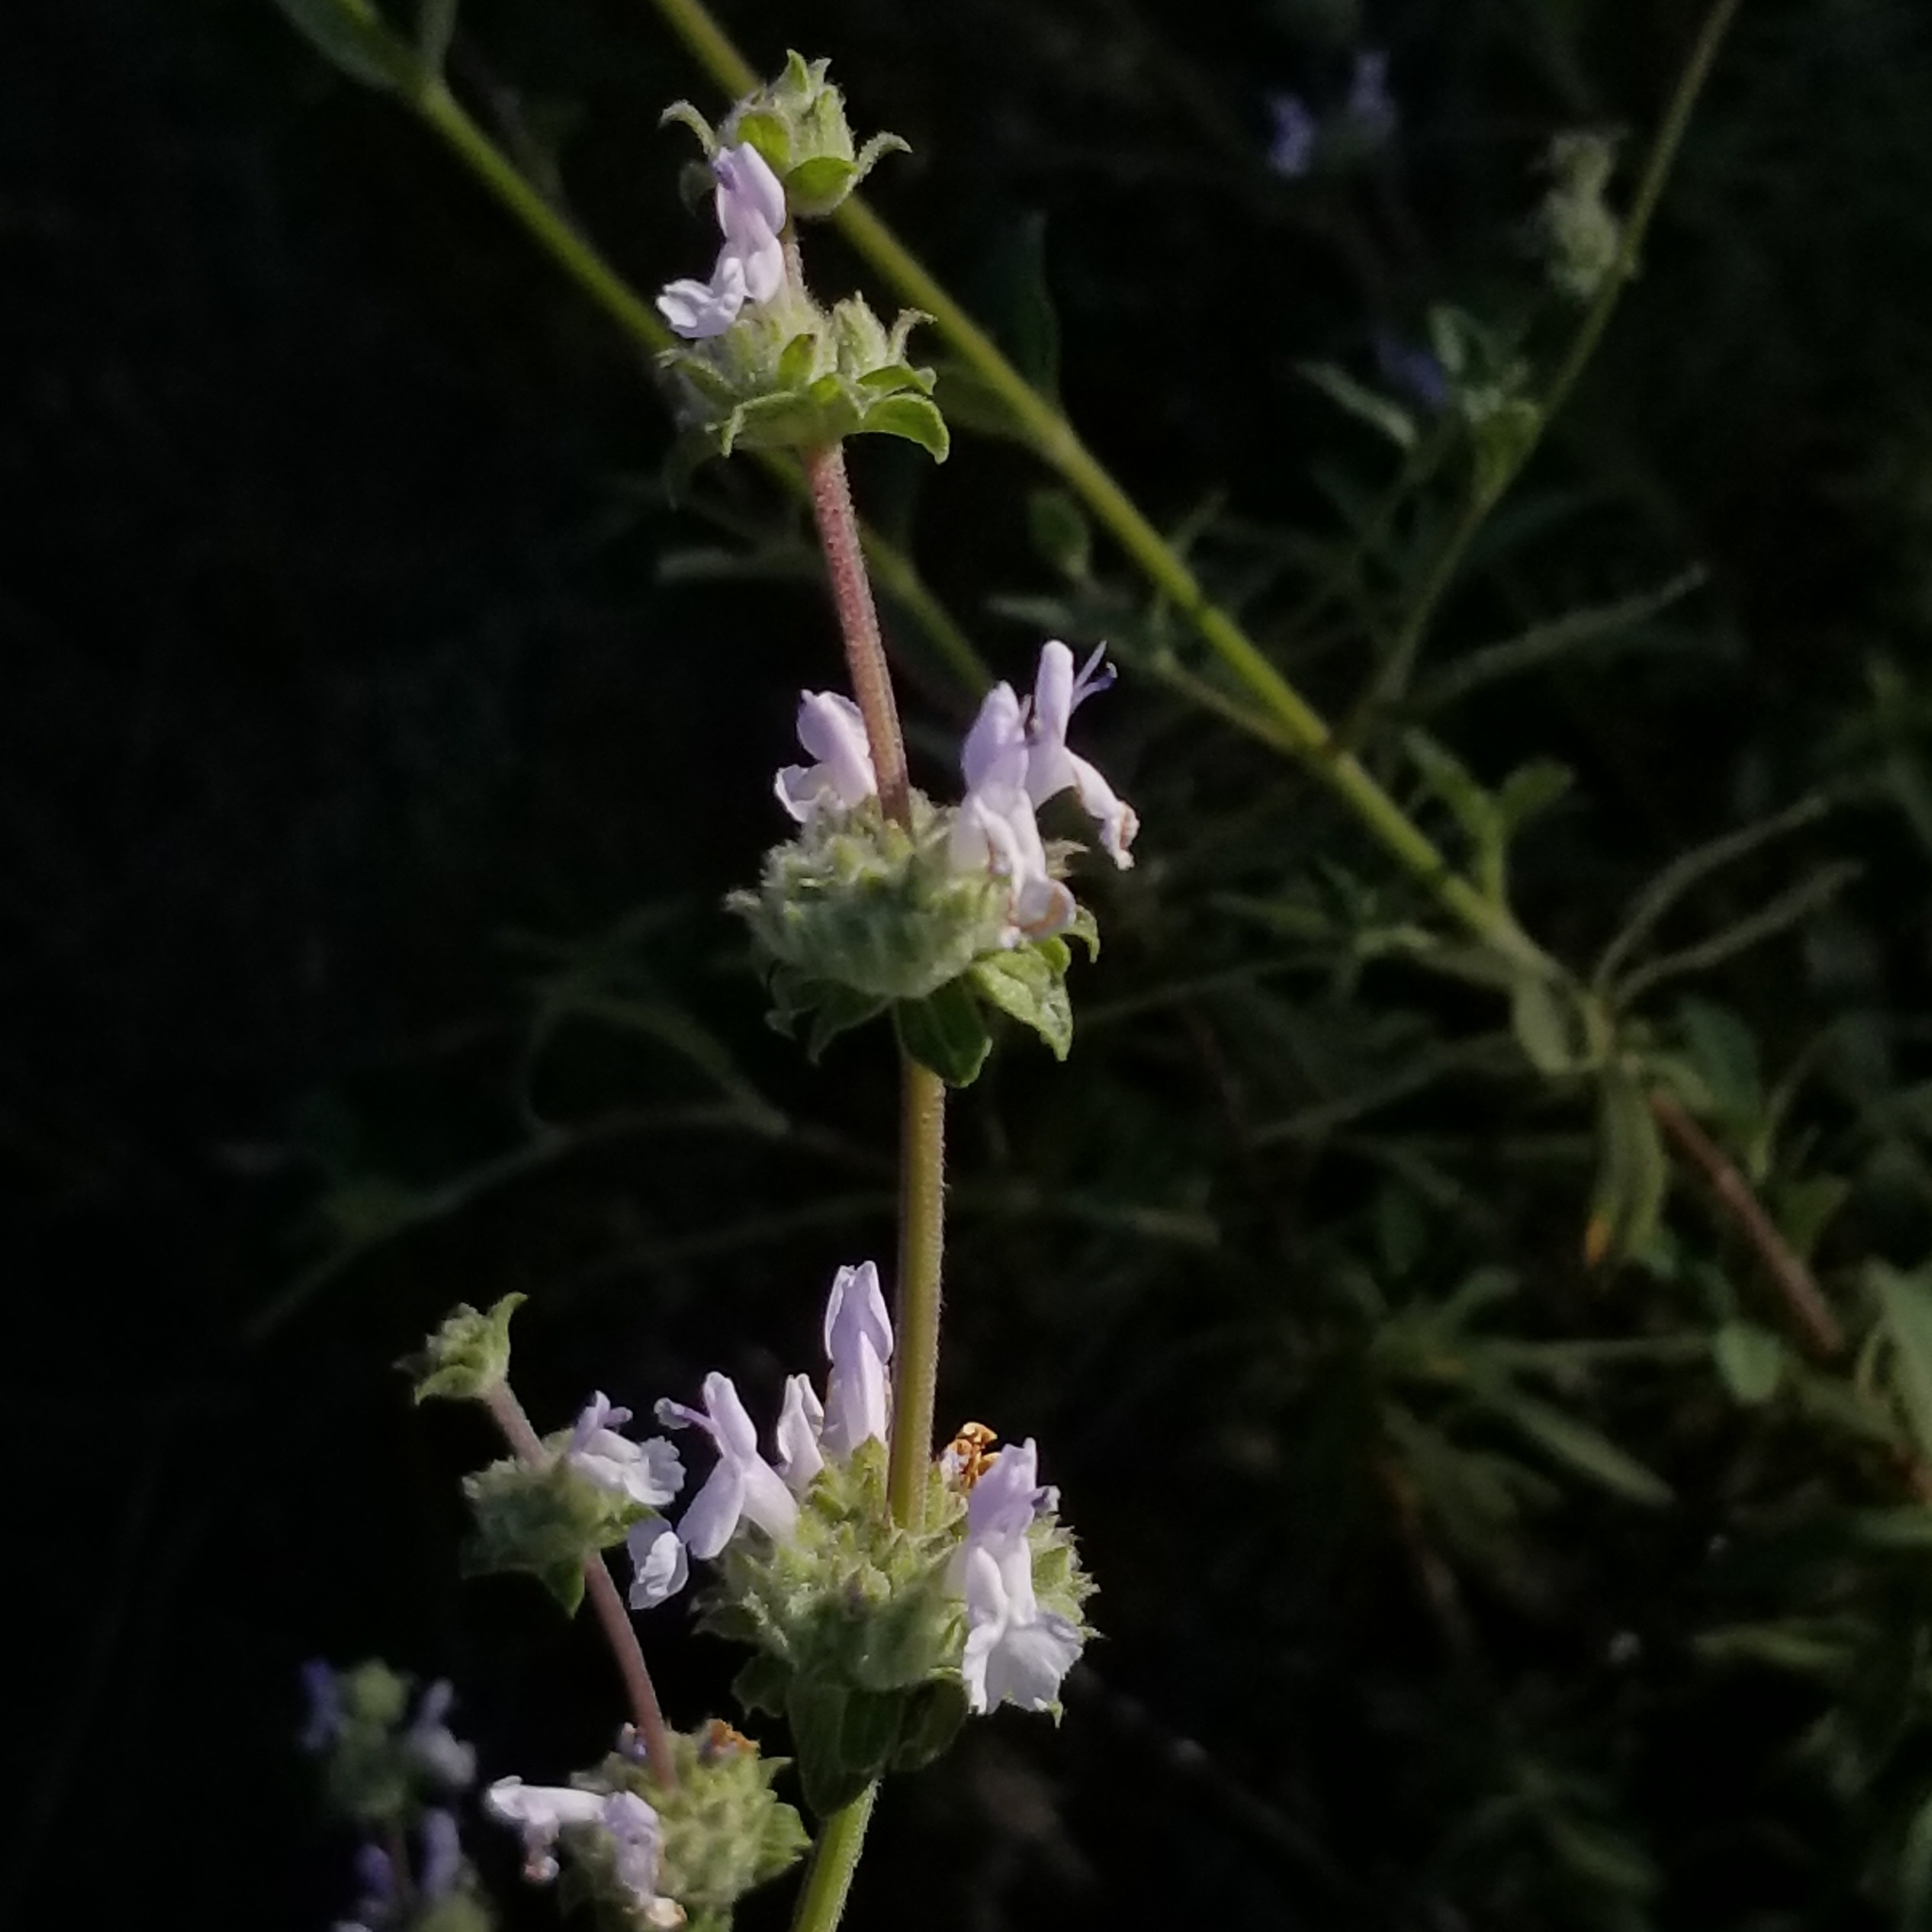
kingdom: Plantae
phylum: Tracheophyta
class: Magnoliopsida
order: Lamiales
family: Lamiaceae
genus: Salvia
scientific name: Salvia mellifera
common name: Black sage
